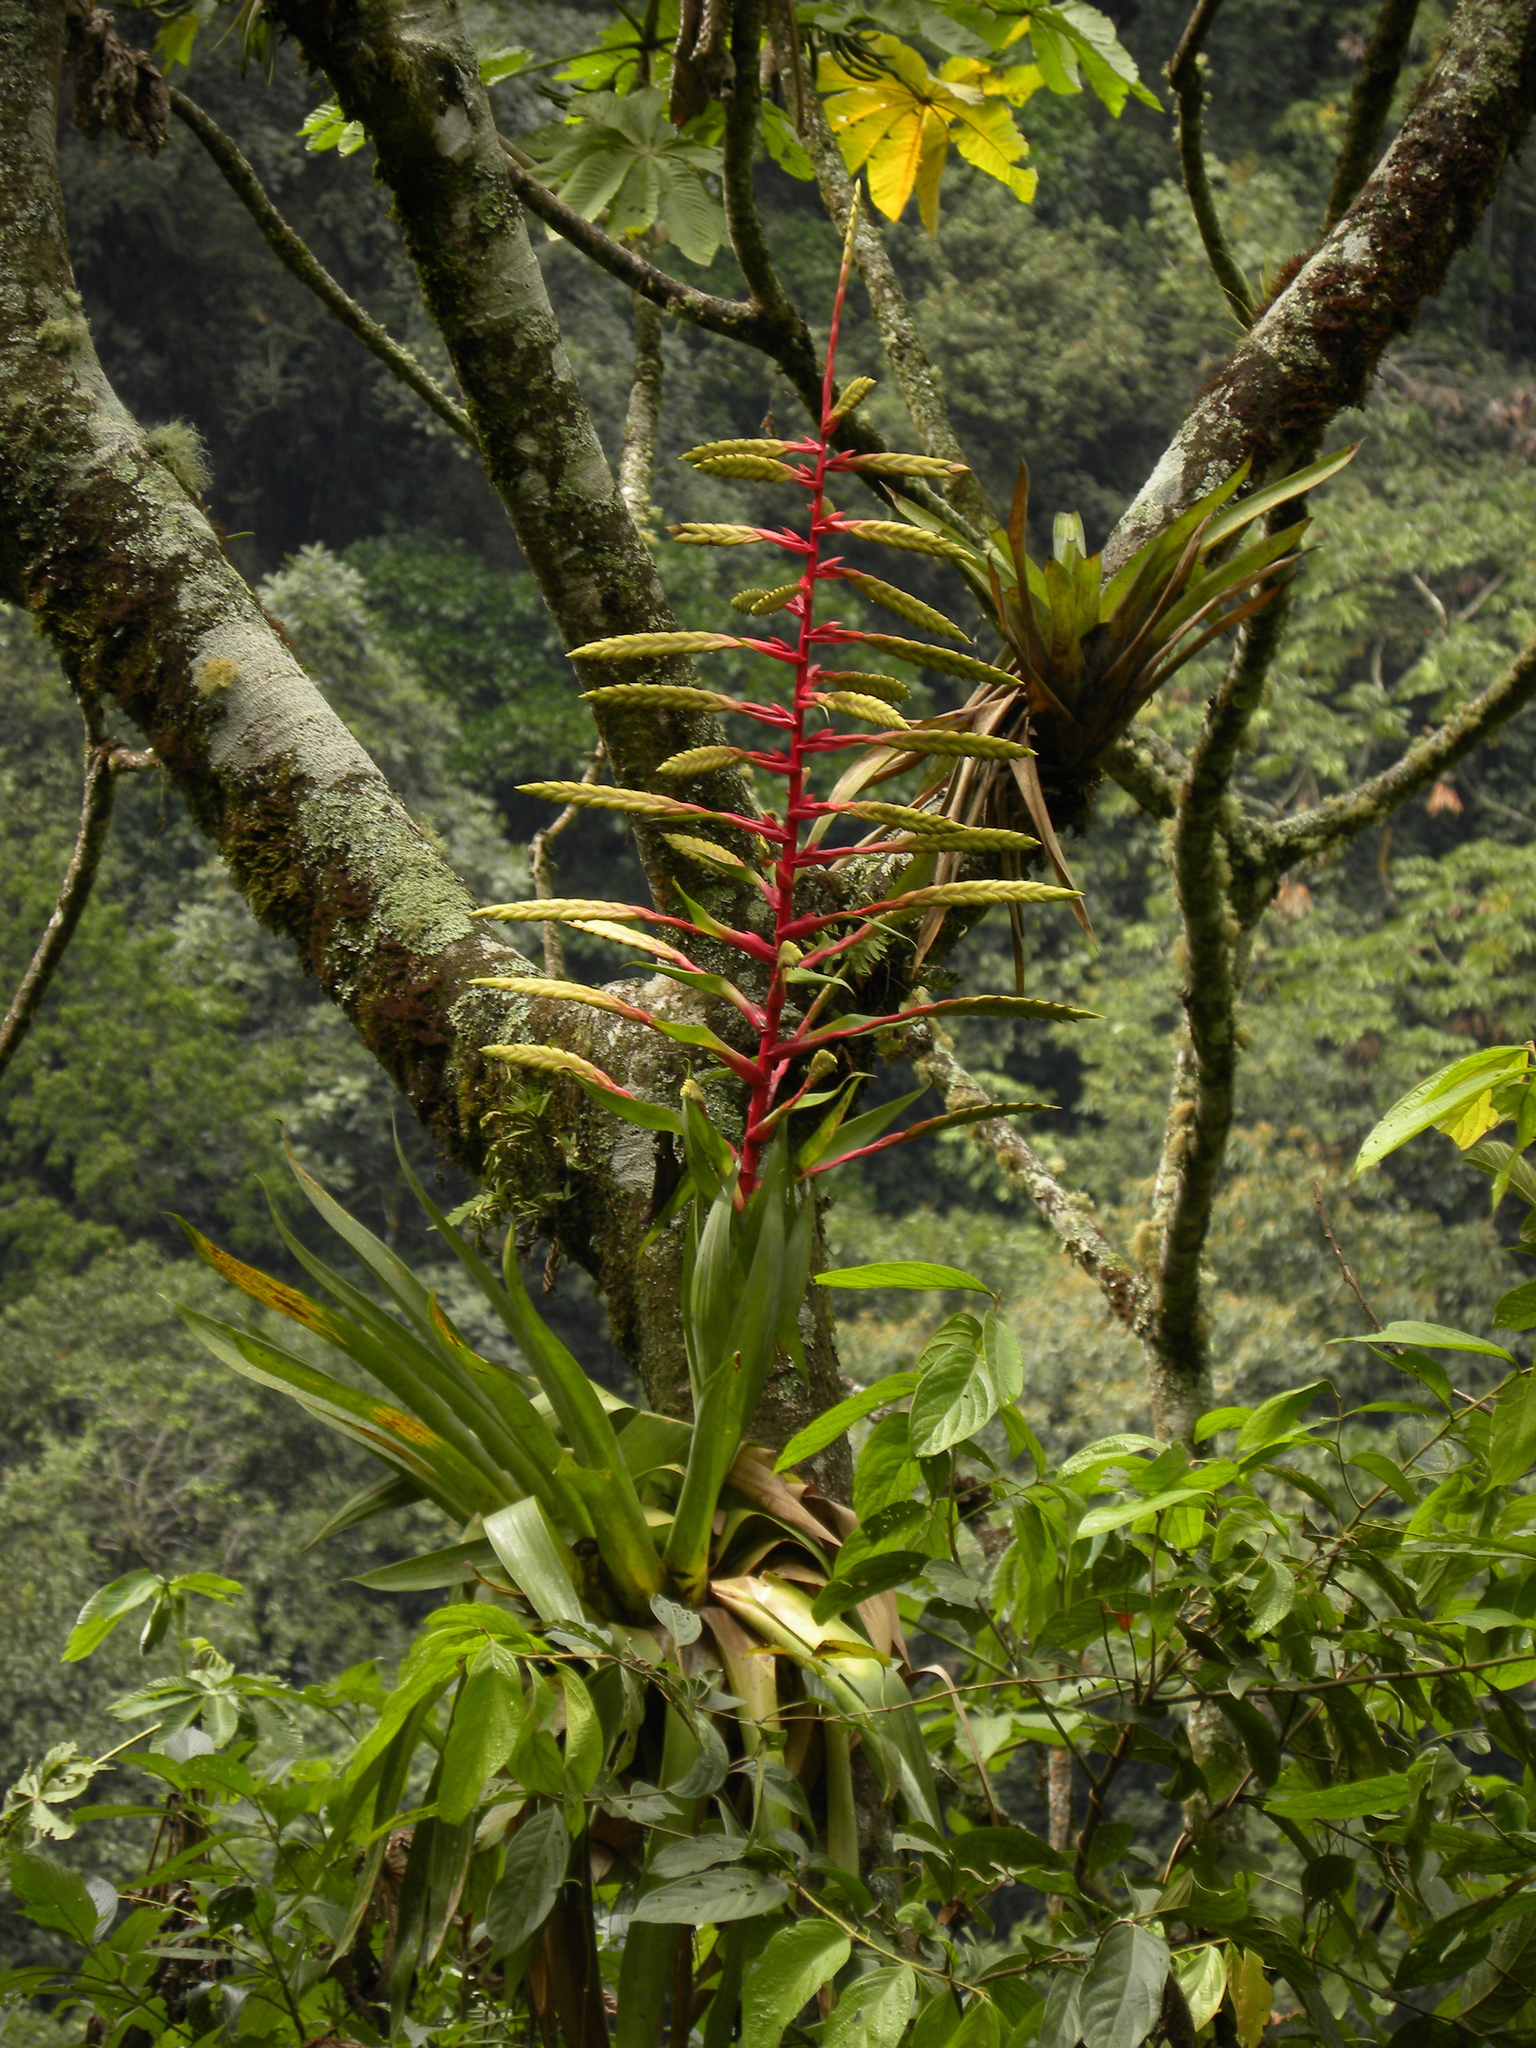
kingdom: Plantae
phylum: Tracheophyta
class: Liliopsida
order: Poales
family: Bromeliaceae
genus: Tillandsia
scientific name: Tillandsia fendleri
